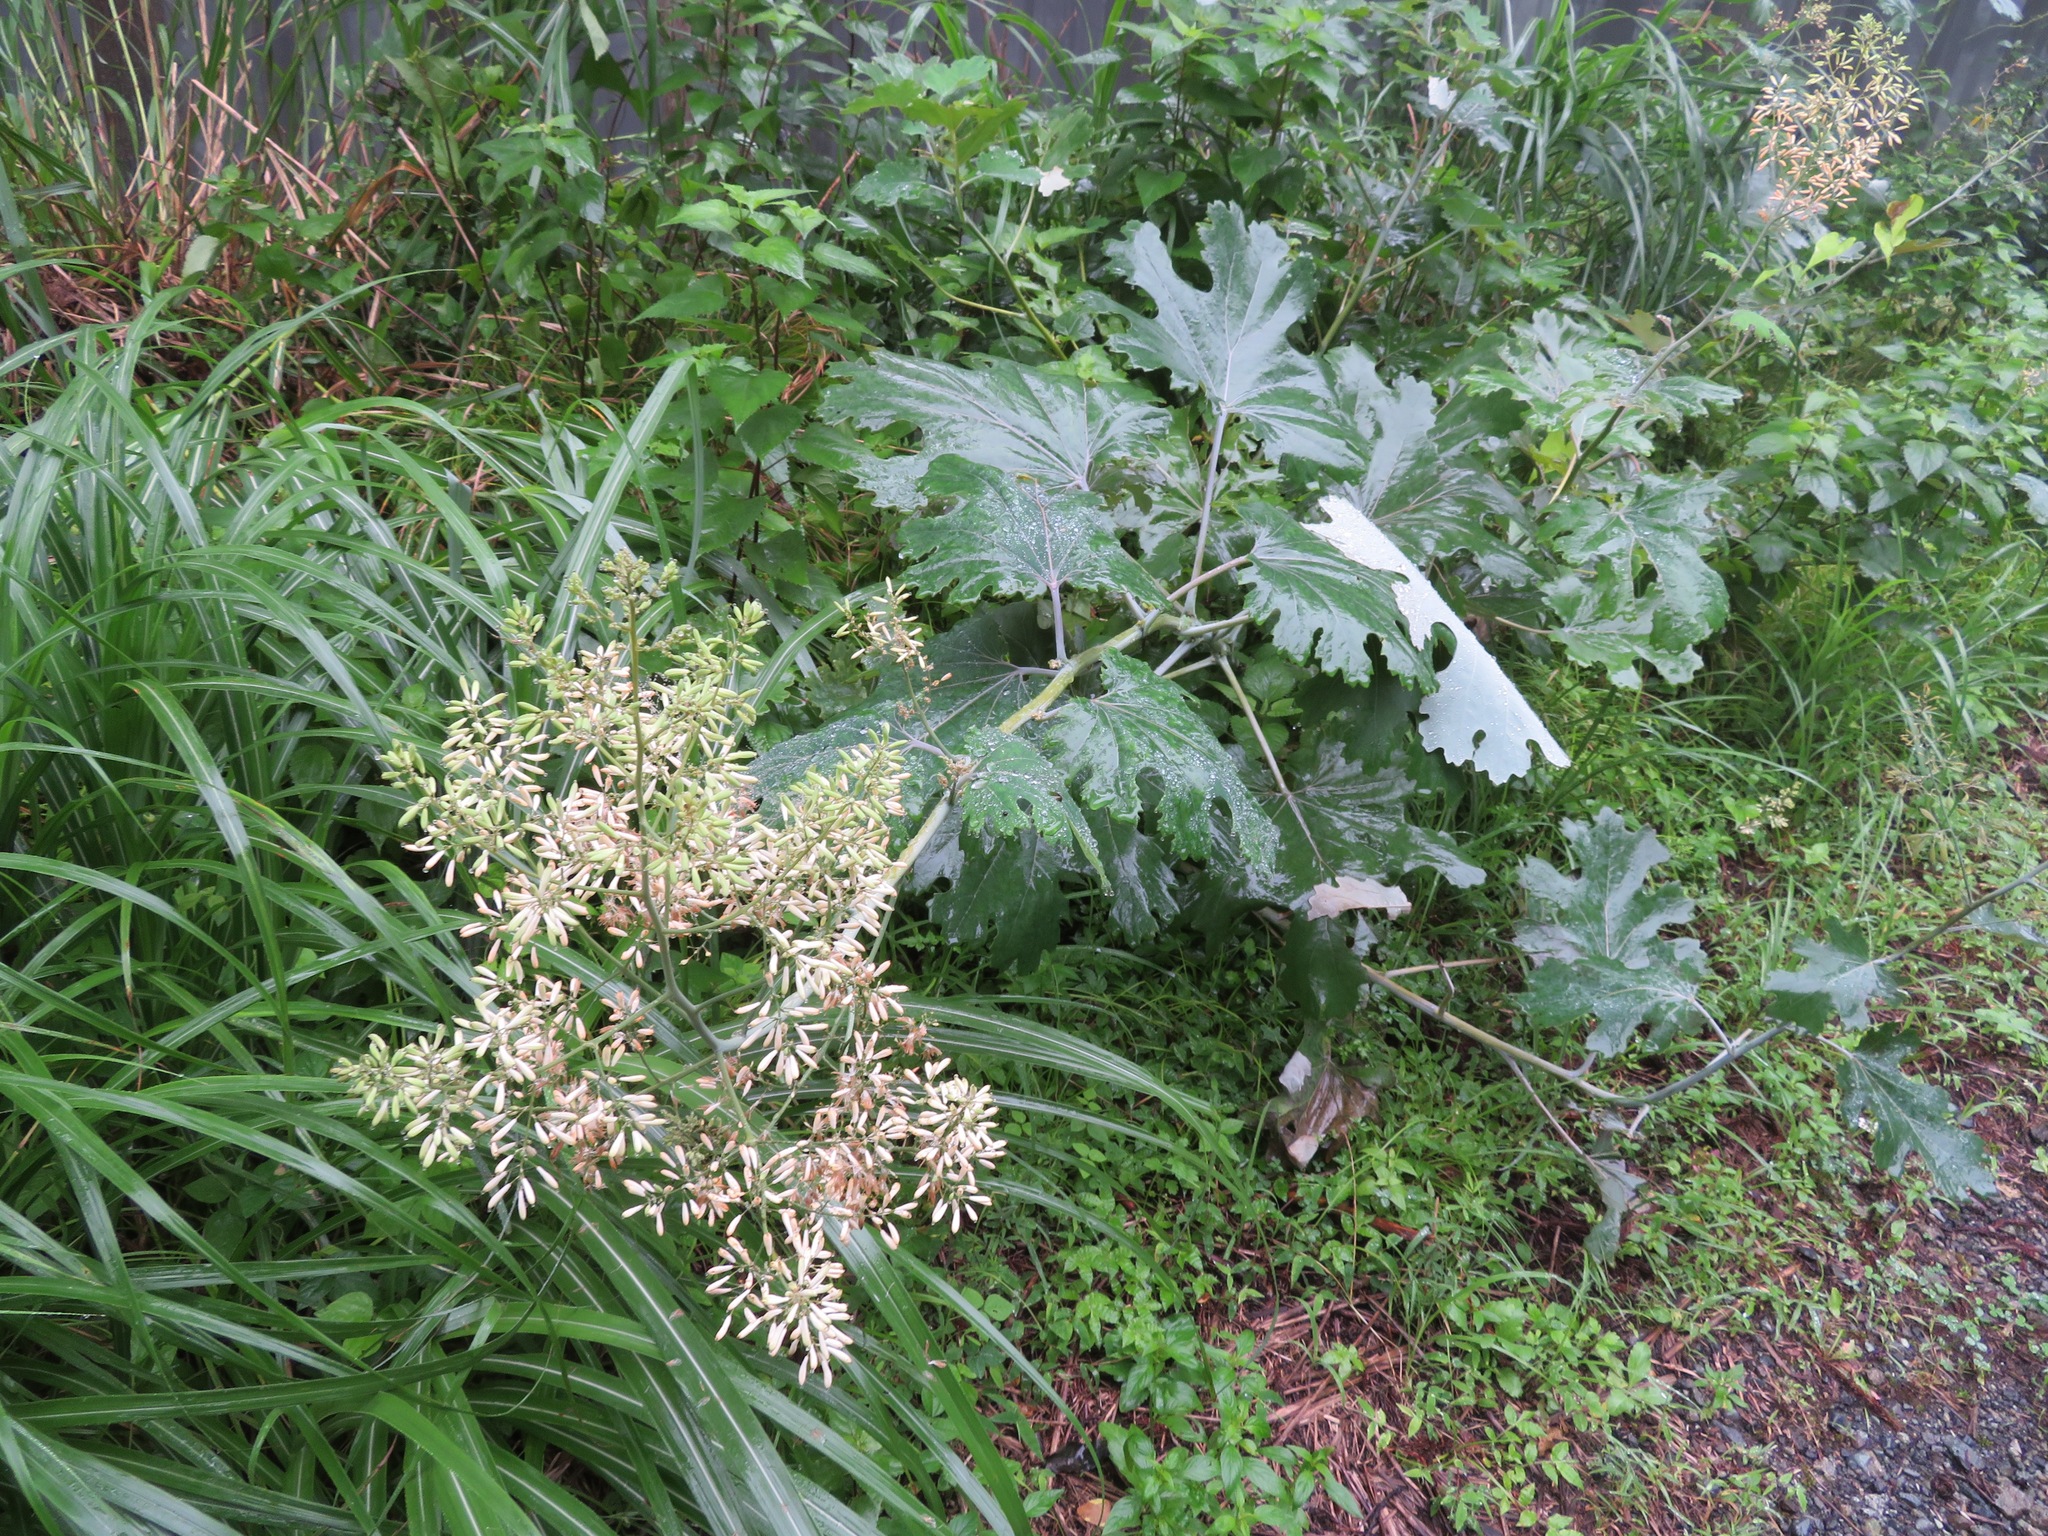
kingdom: Plantae
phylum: Tracheophyta
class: Magnoliopsida
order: Ranunculales
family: Papaveraceae
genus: Macleaya
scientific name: Macleaya cordata
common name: Plume poppy
